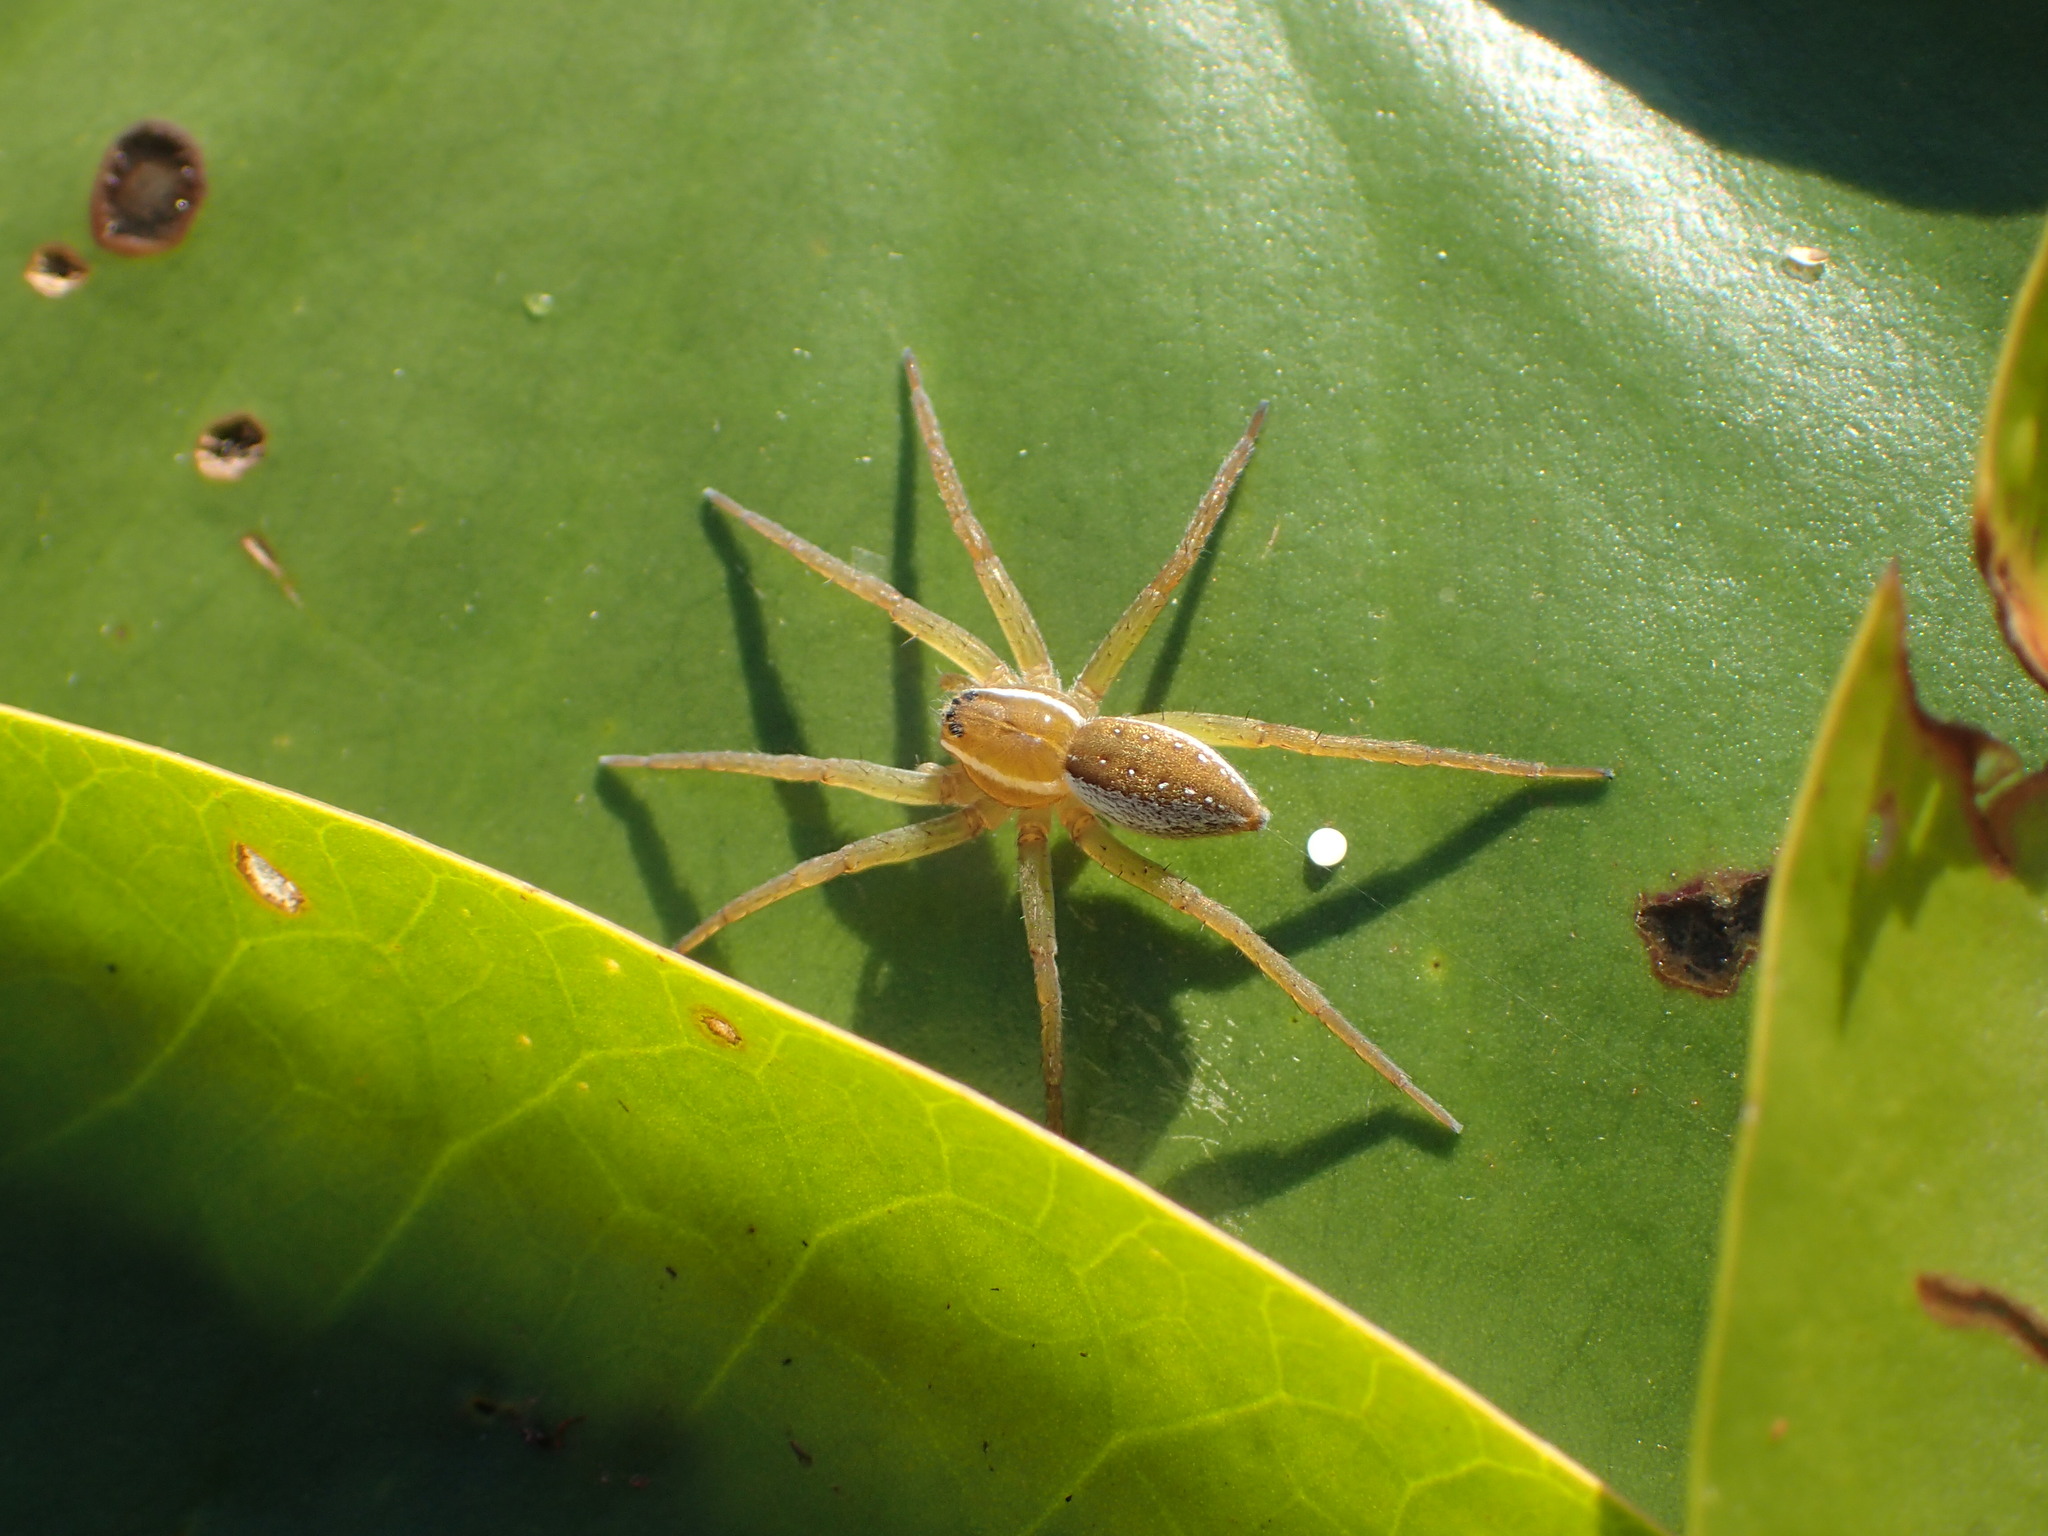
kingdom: Animalia
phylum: Arthropoda
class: Arachnida
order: Araneae
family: Pisauridae
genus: Dolomedes
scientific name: Dolomedes triton
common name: Six-spotted fishing spider
